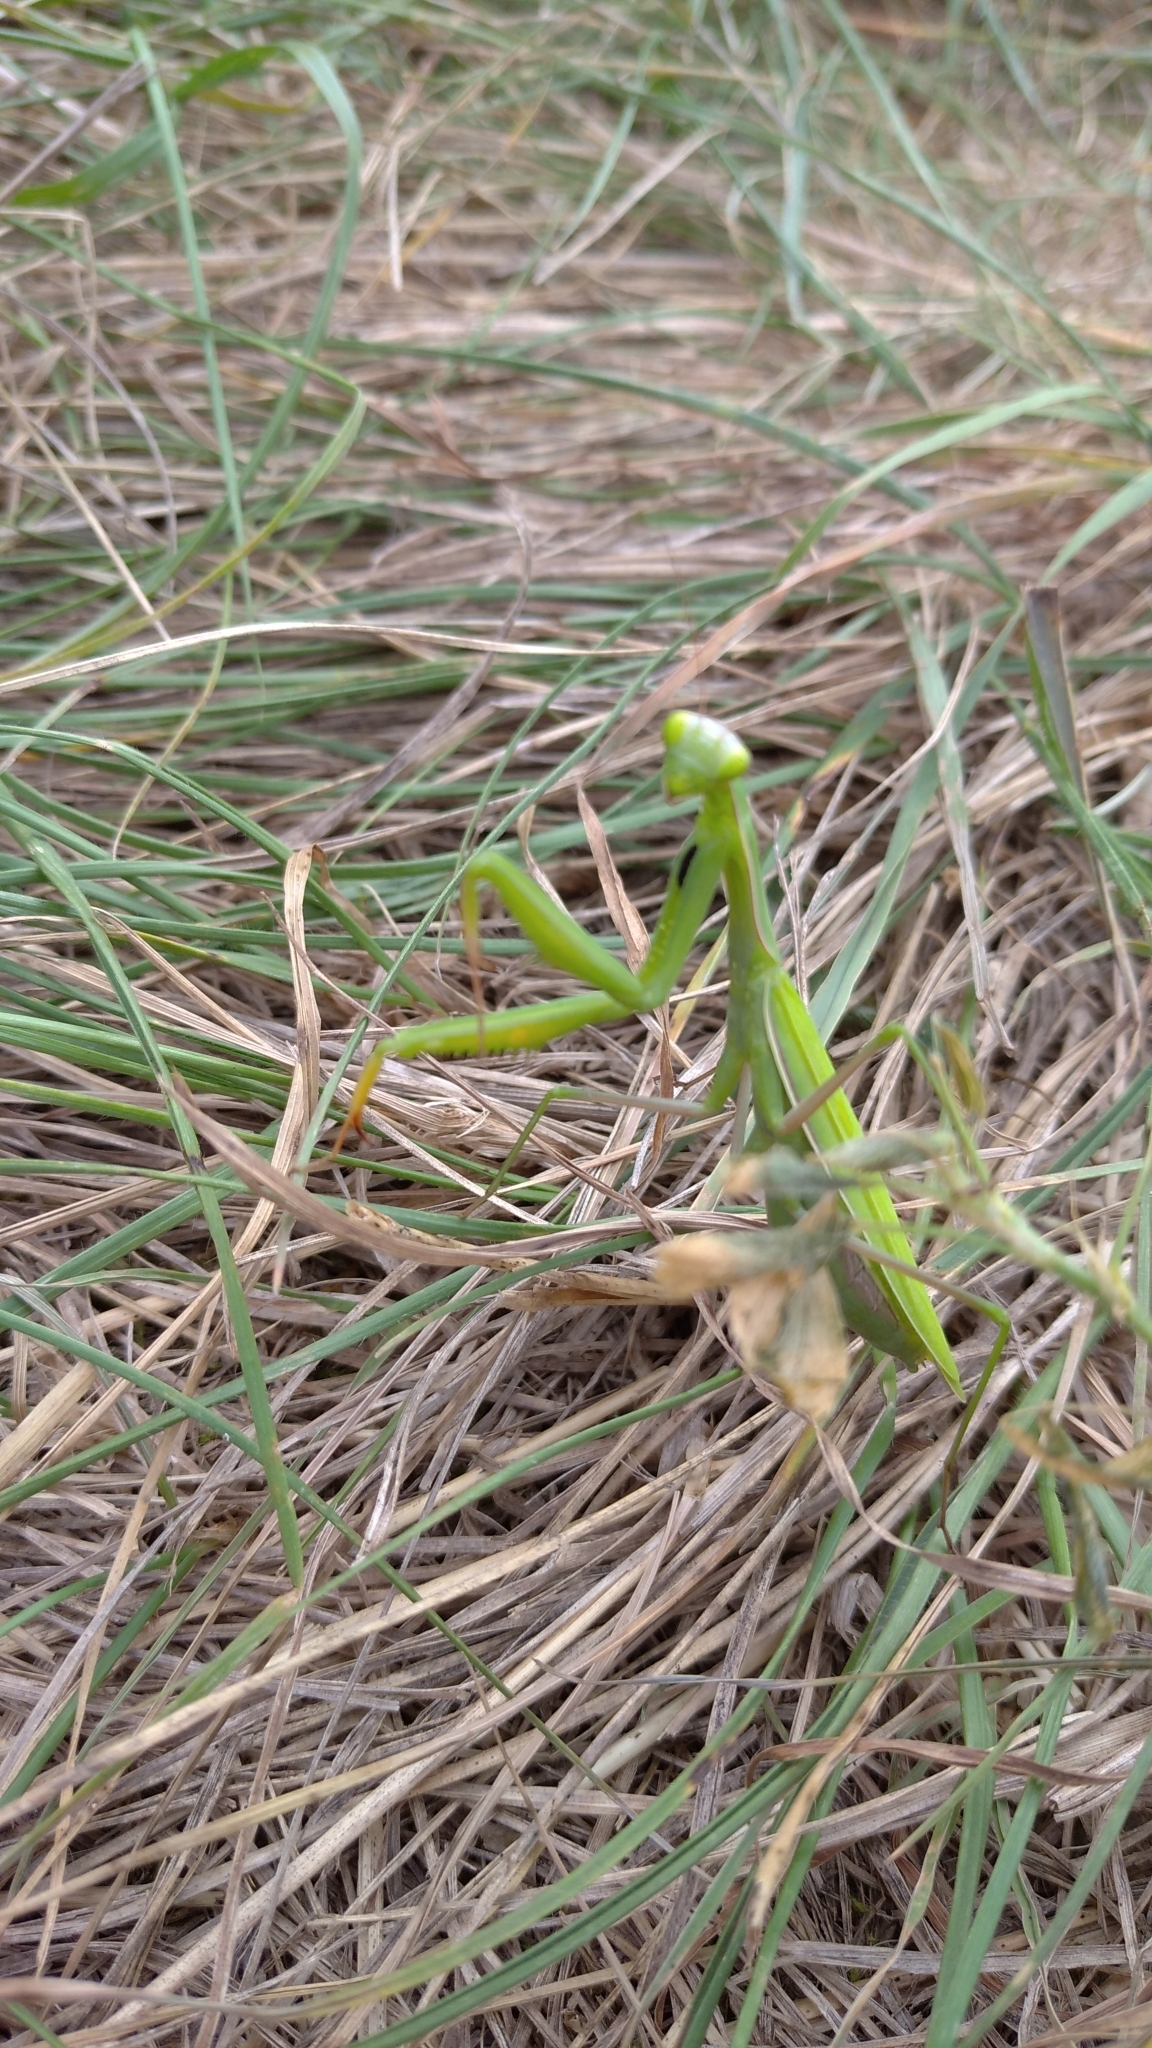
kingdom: Animalia
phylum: Arthropoda
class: Insecta
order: Mantodea
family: Mantidae
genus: Mantis
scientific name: Mantis religiosa
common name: Praying mantis
